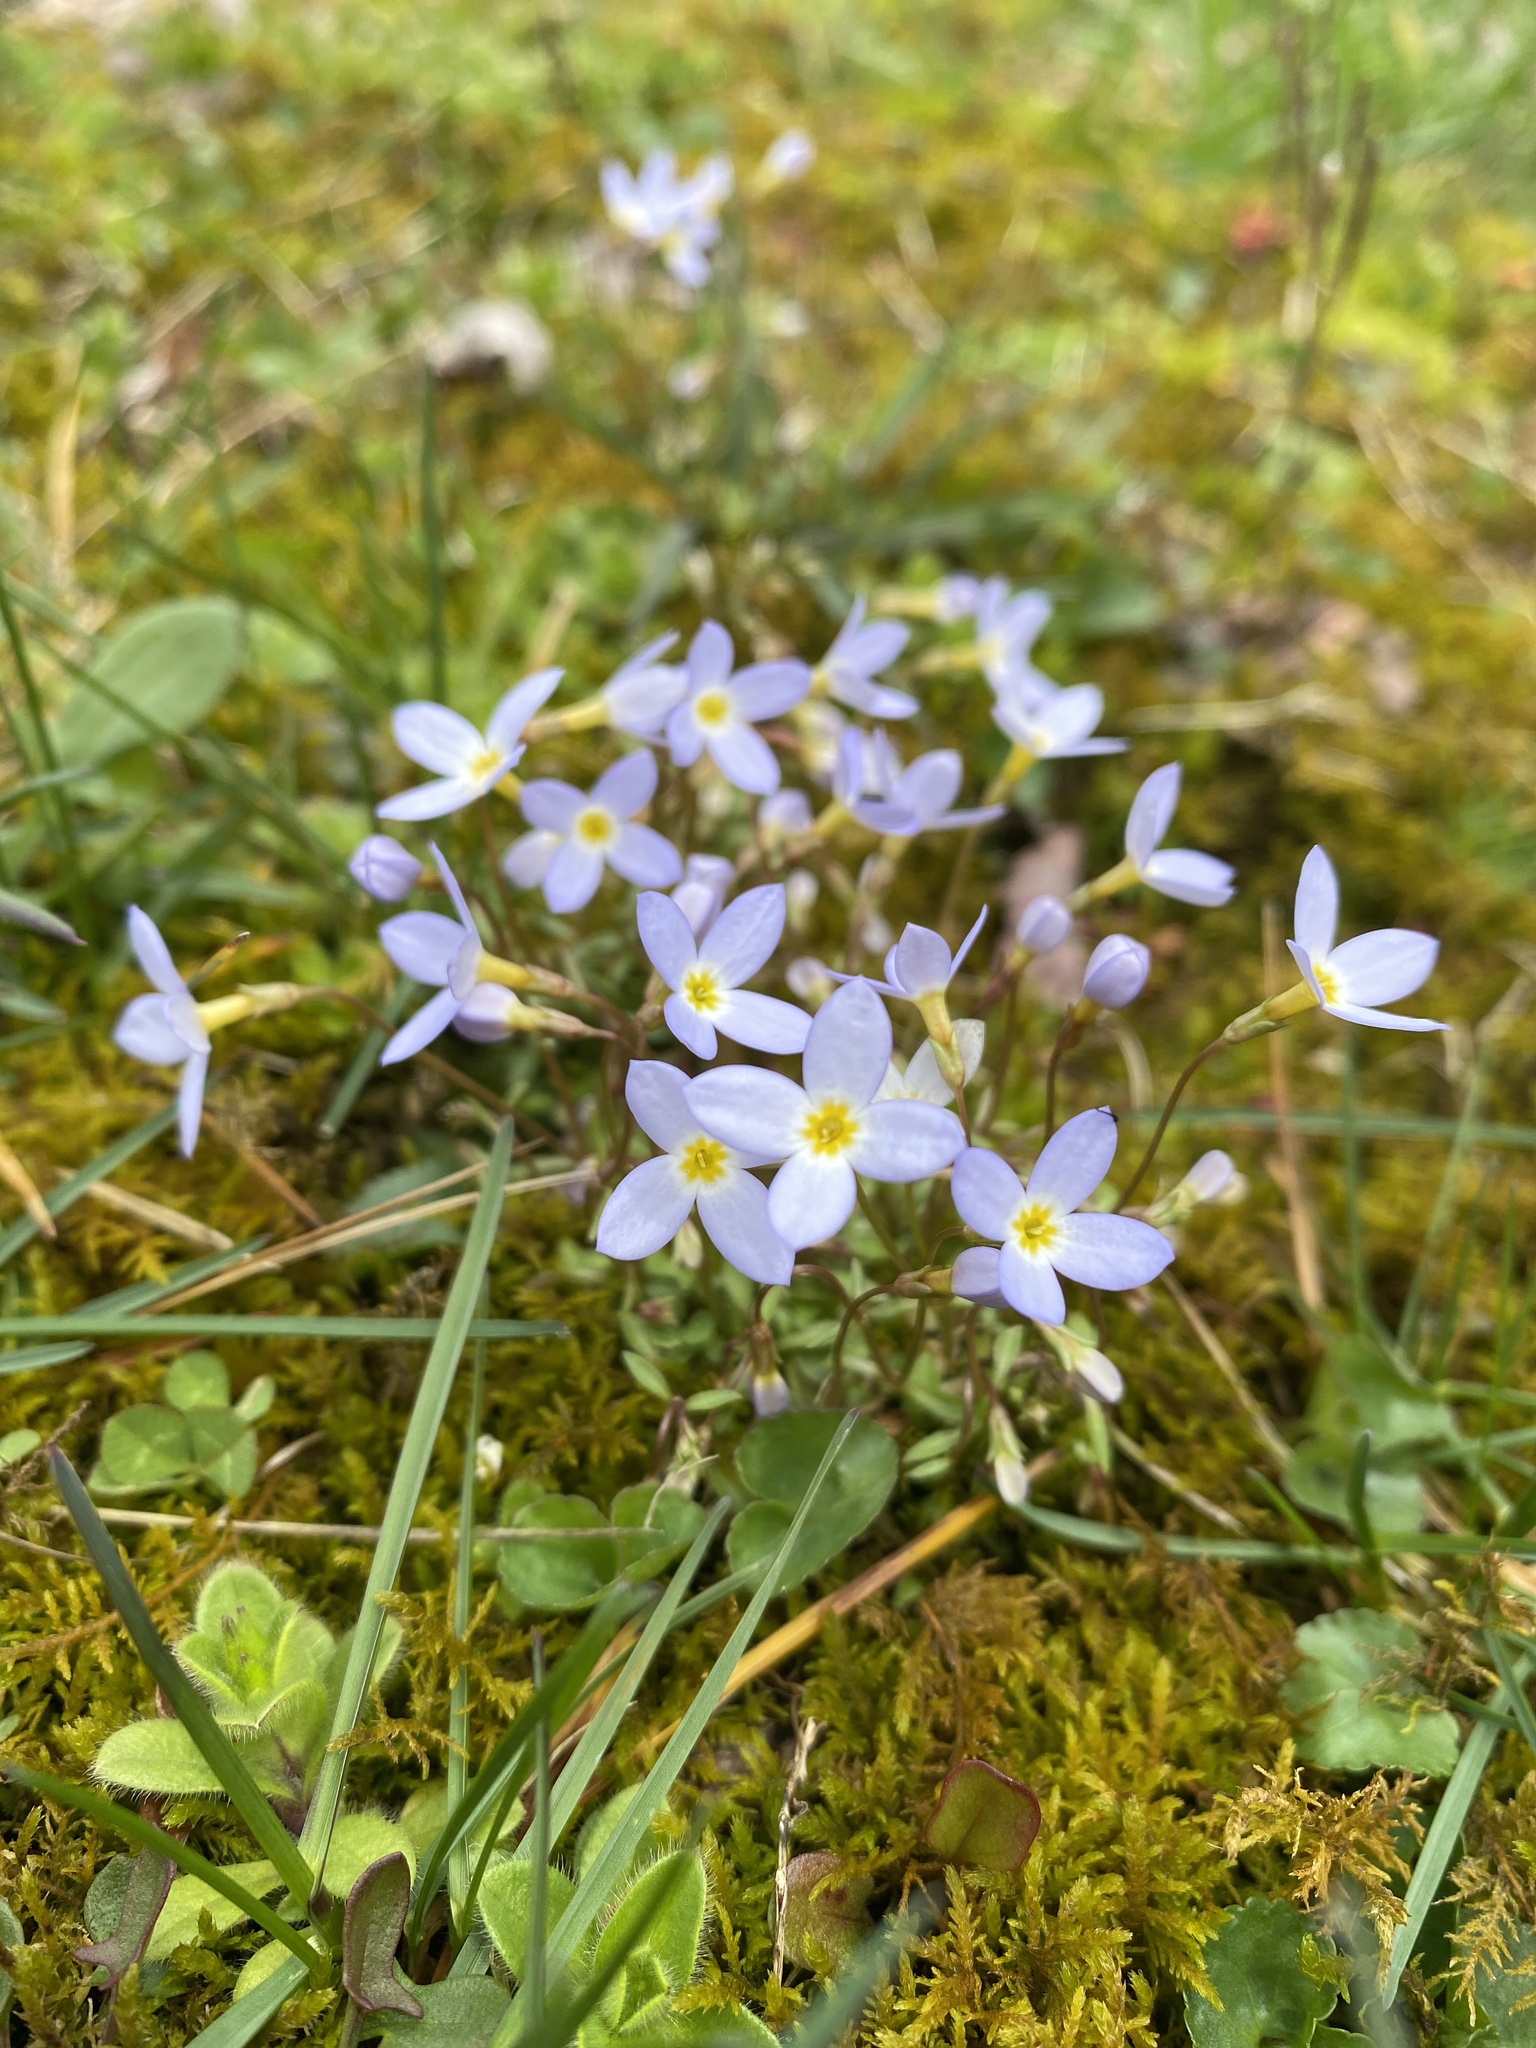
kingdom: Plantae
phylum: Tracheophyta
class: Magnoliopsida
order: Gentianales
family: Rubiaceae
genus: Houstonia
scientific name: Houstonia caerulea
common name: Bluets
